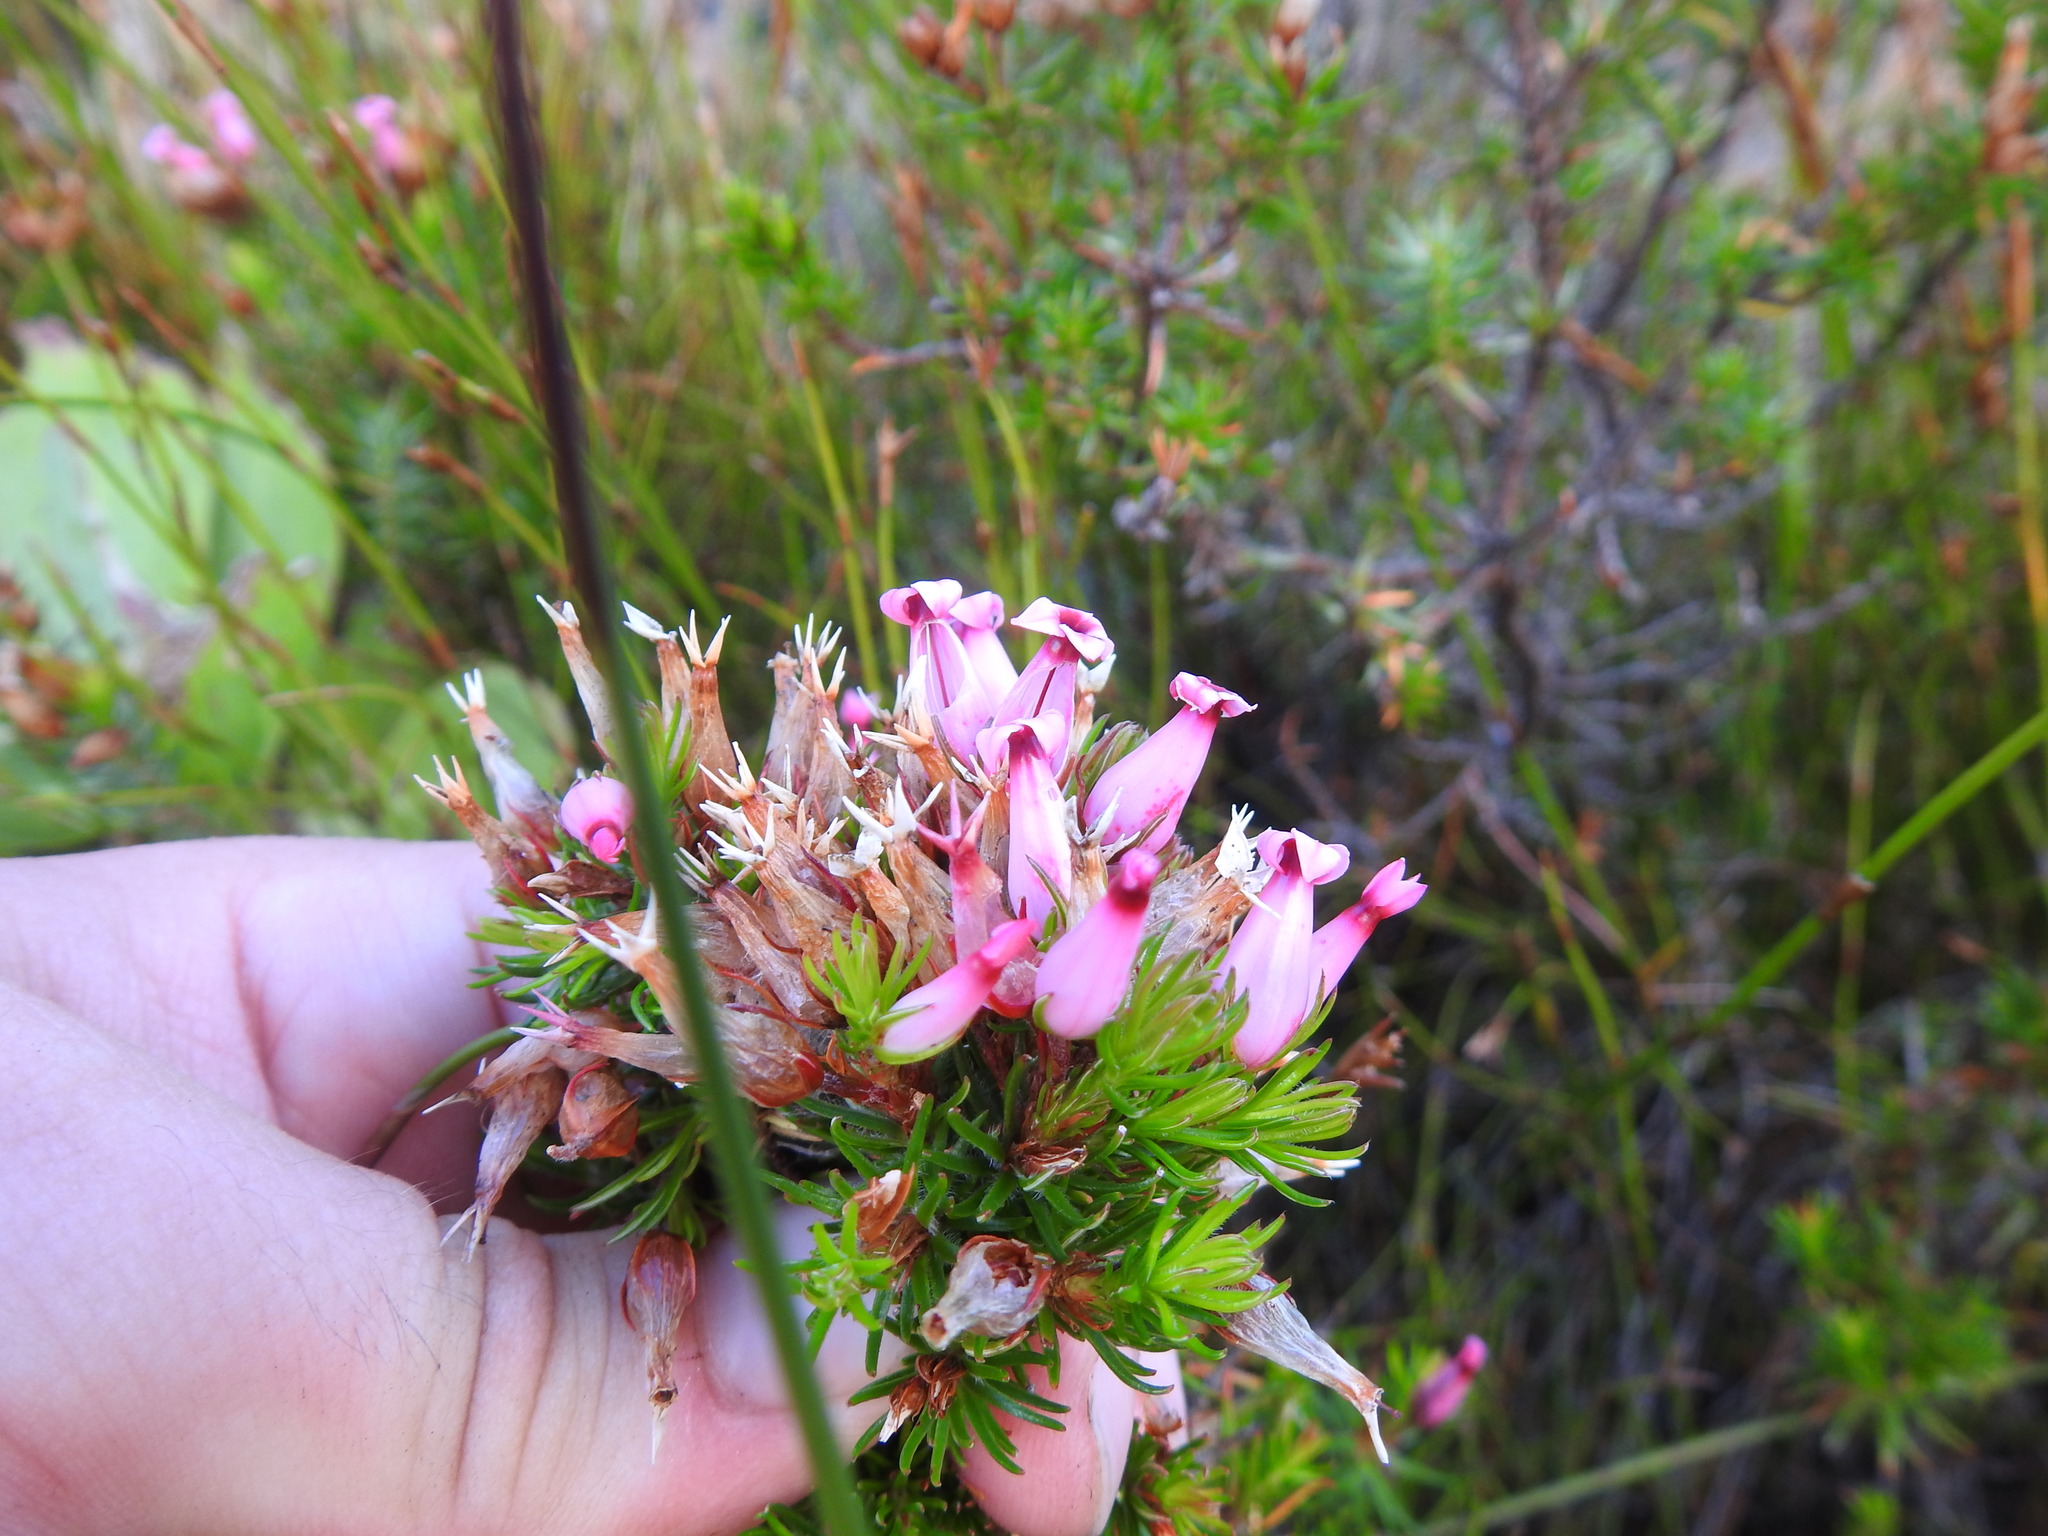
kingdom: Plantae
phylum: Tracheophyta
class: Magnoliopsida
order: Ericales
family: Ericaceae
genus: Erica
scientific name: Erica ventricosa
